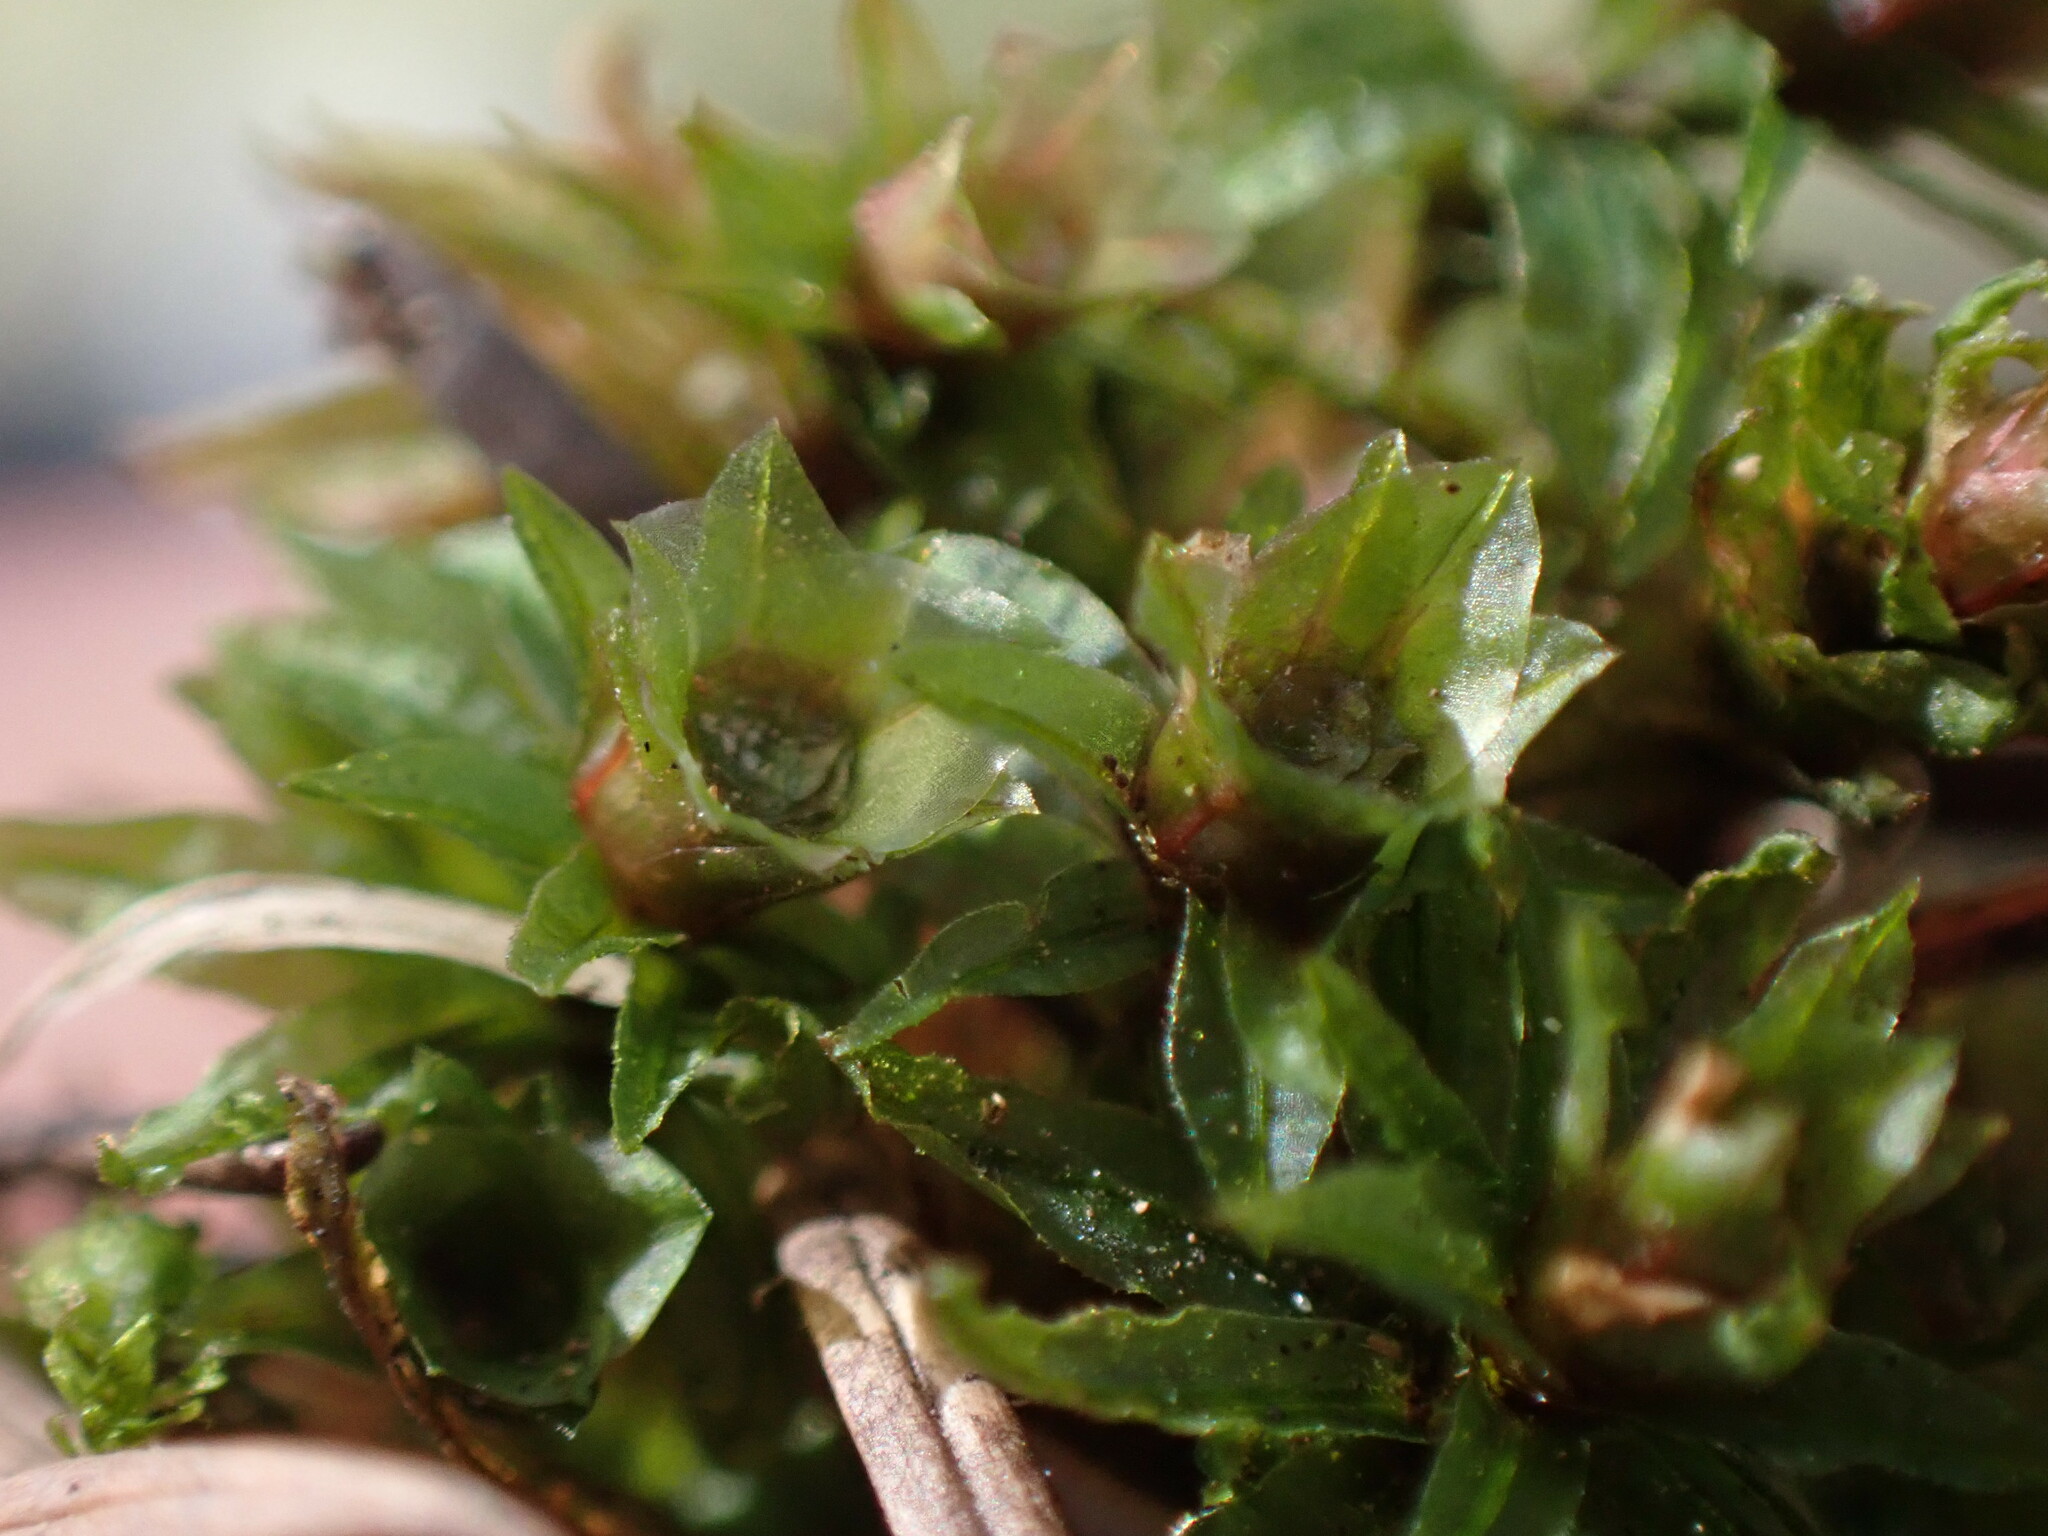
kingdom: Plantae
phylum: Bryophyta
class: Polytrichopsida
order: Polytrichales
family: Polytrichaceae
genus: Atrichum
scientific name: Atrichum selwynii
